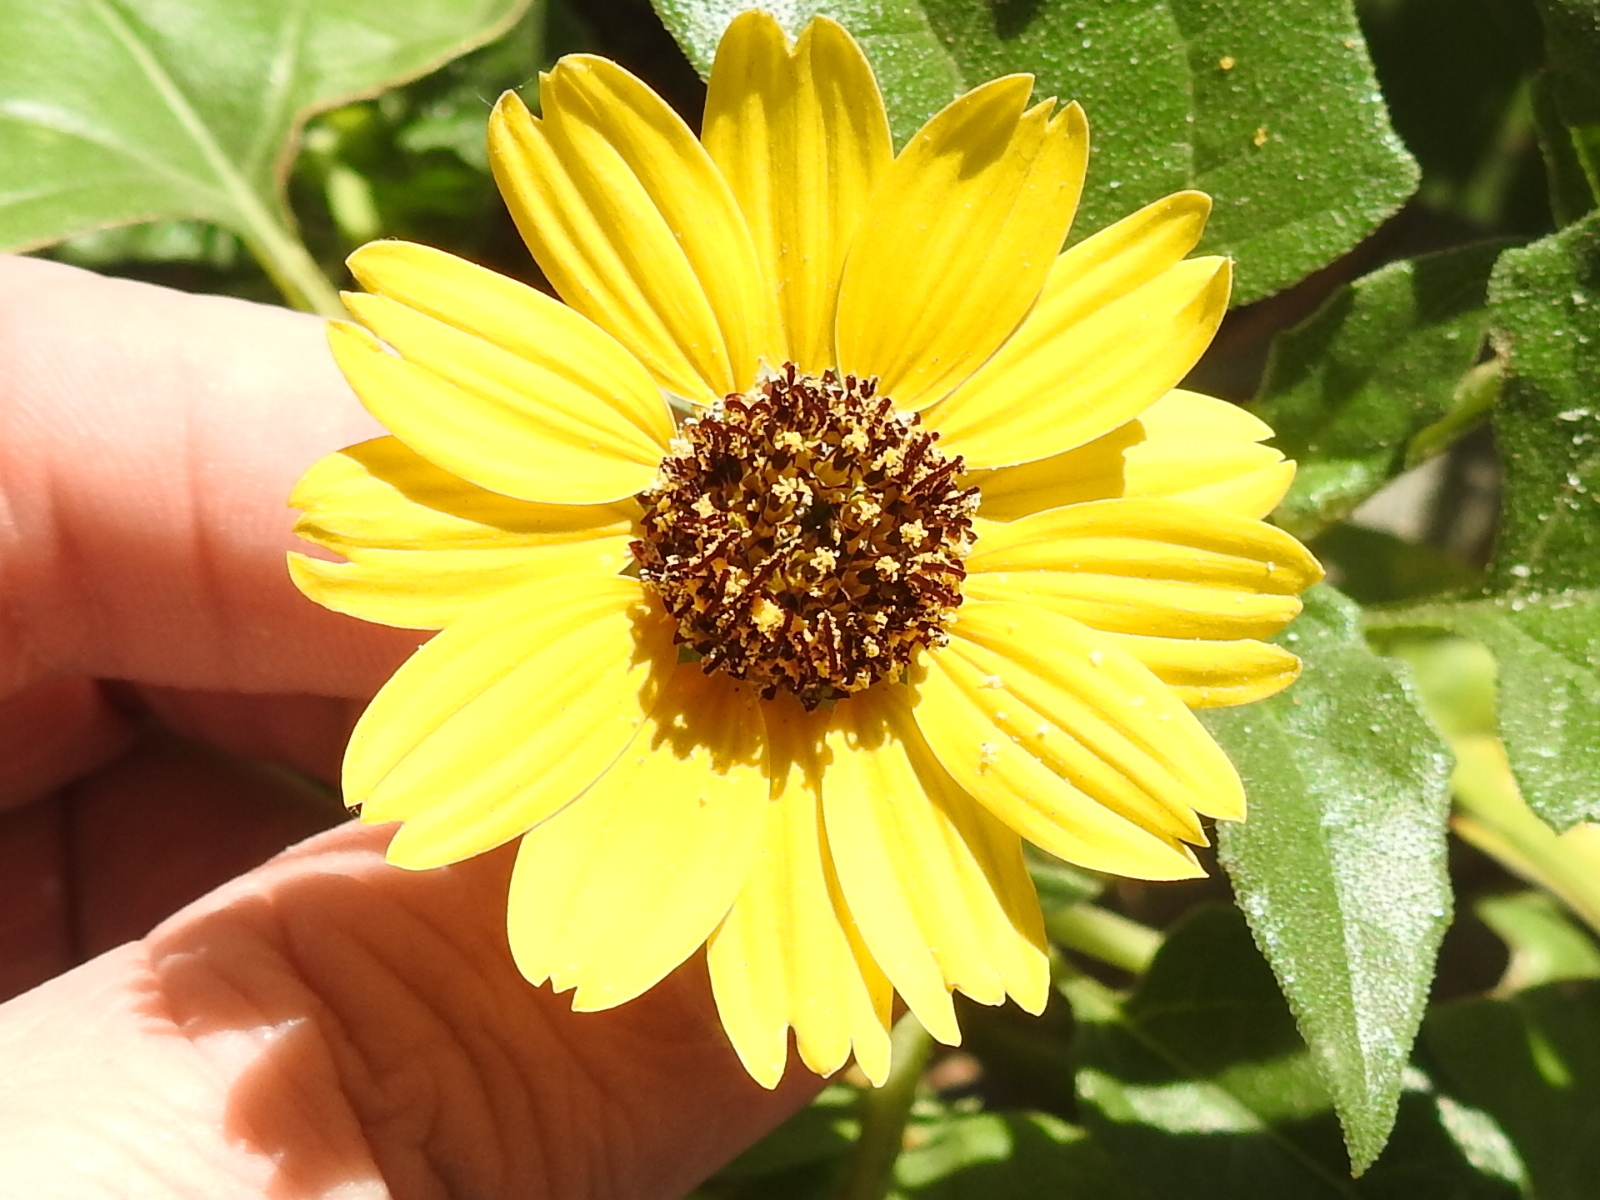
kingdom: Plantae
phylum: Tracheophyta
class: Magnoliopsida
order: Asterales
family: Asteraceae
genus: Helianthus
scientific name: Helianthus debilis
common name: Weak sunflower
